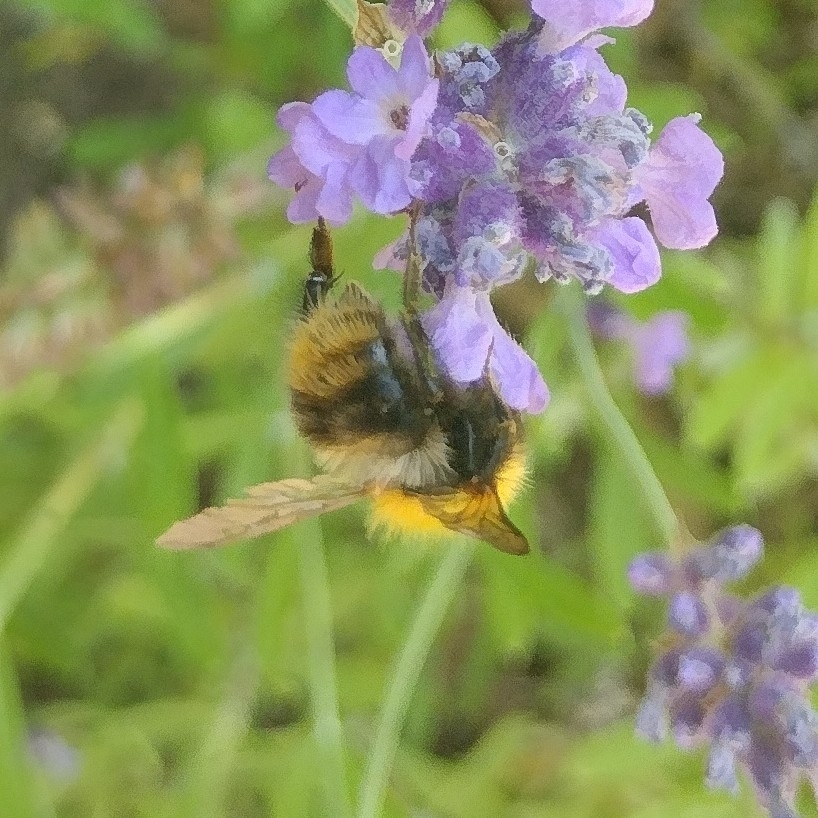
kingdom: Animalia
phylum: Arthropoda
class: Insecta
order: Hymenoptera
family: Apidae
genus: Bombus
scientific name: Bombus pascuorum
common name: Common carder bee
